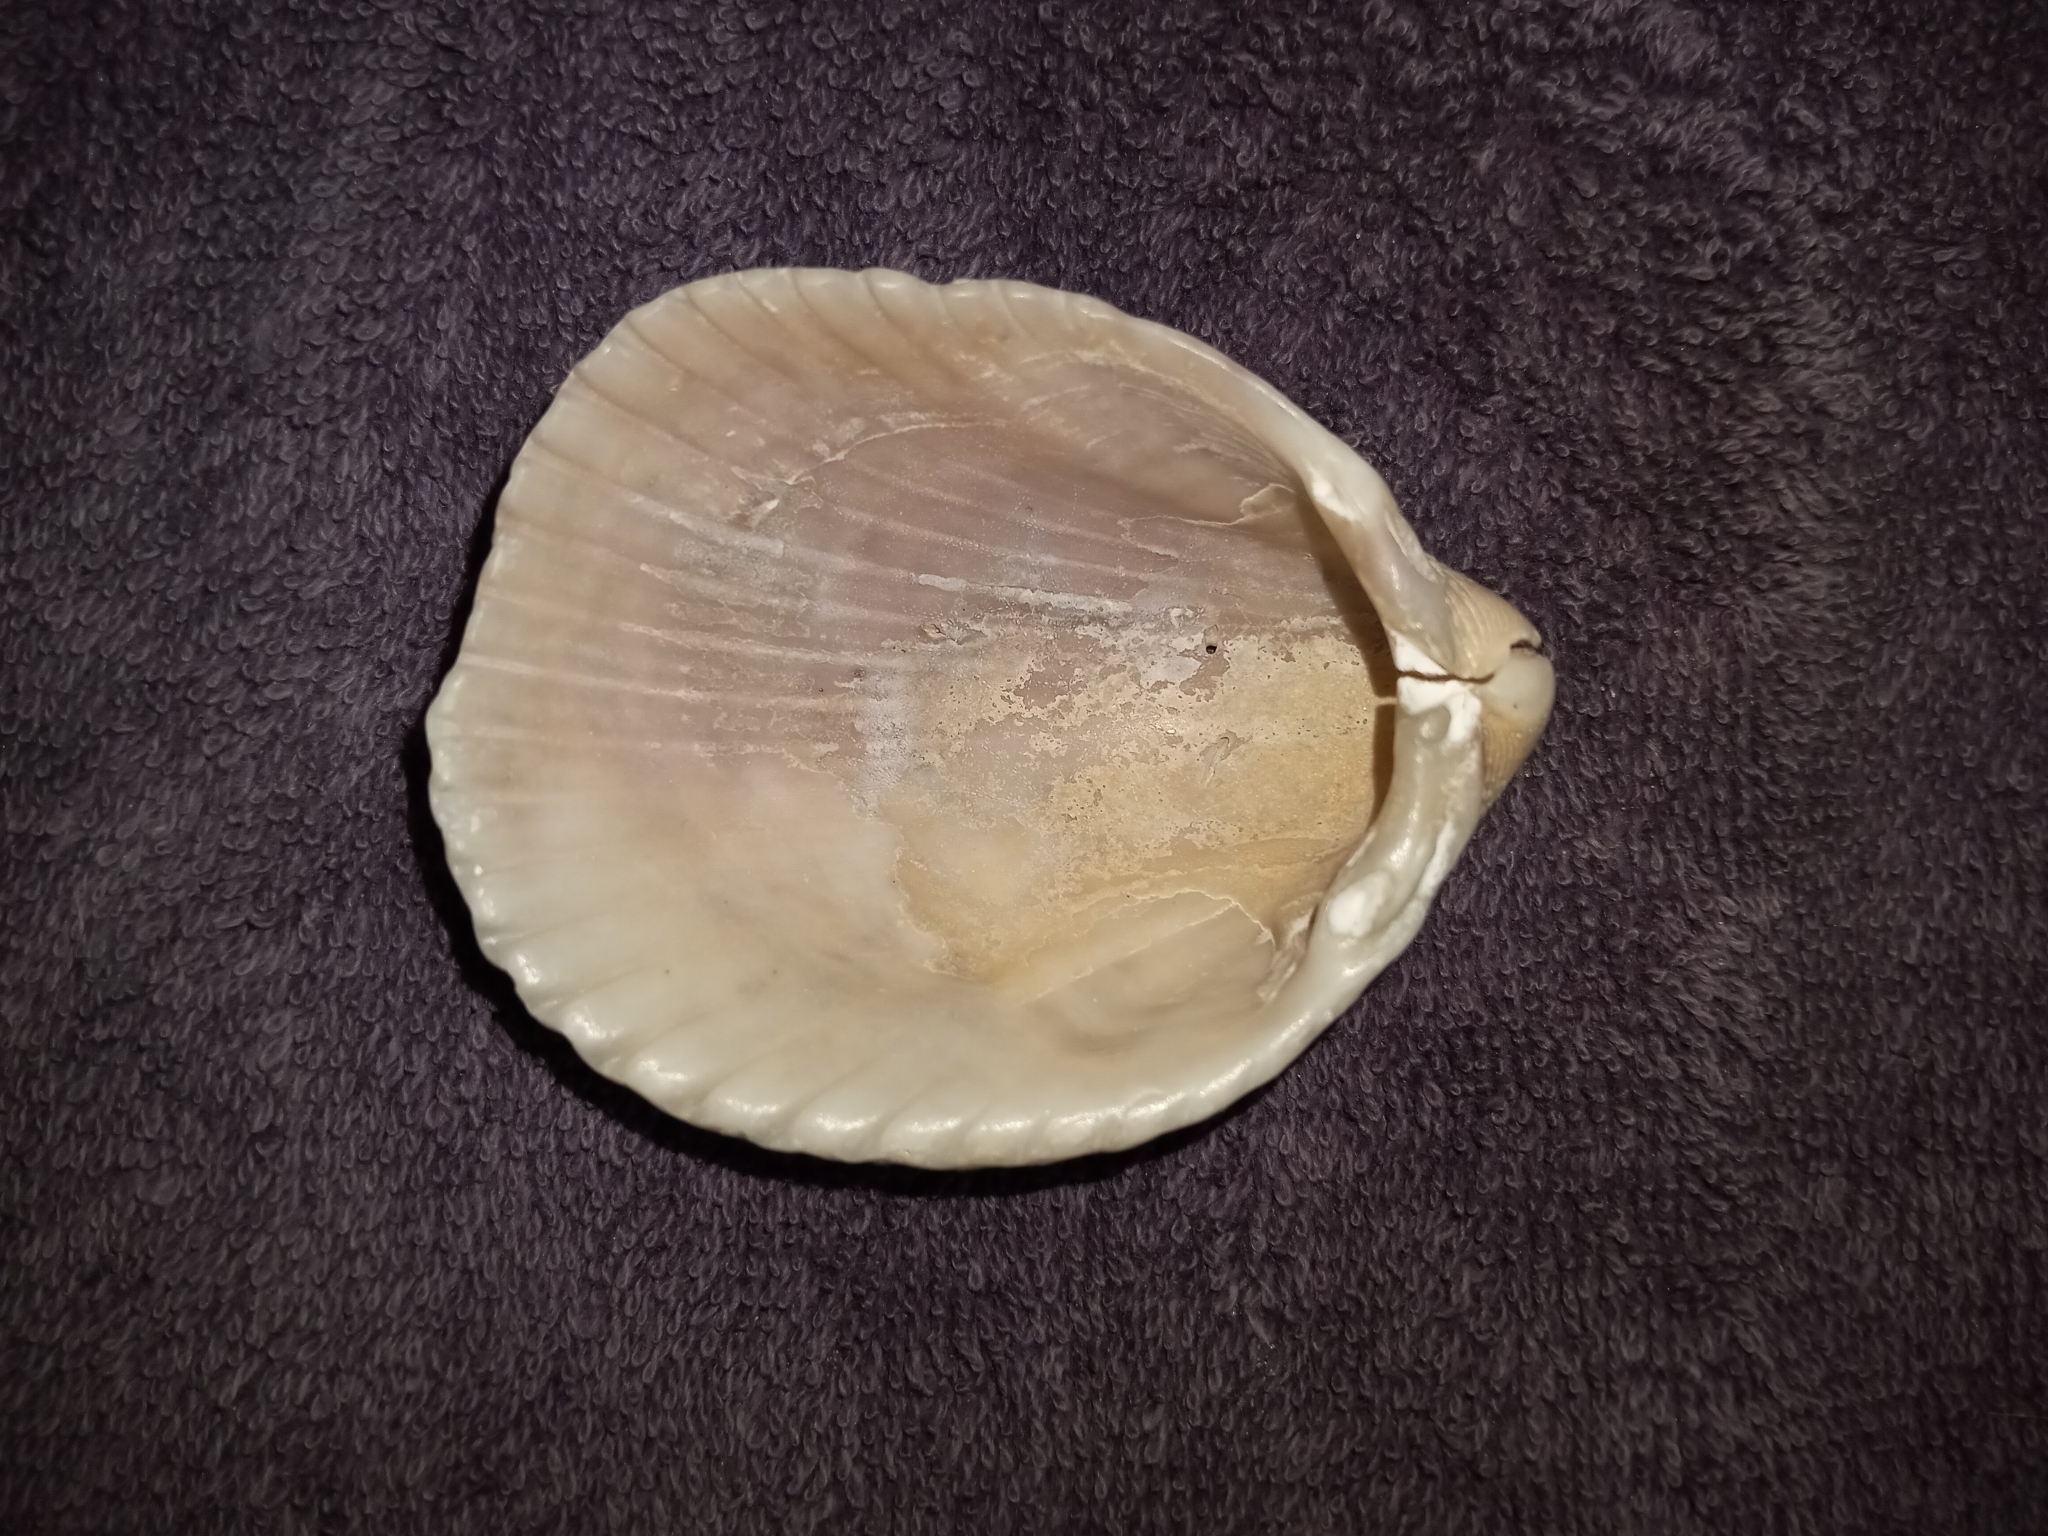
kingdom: Animalia
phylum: Mollusca
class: Bivalvia
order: Cardiida
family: Cardiidae
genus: Trachycardium
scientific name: Trachycardium egmontianum
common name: Florida pricklycockle
